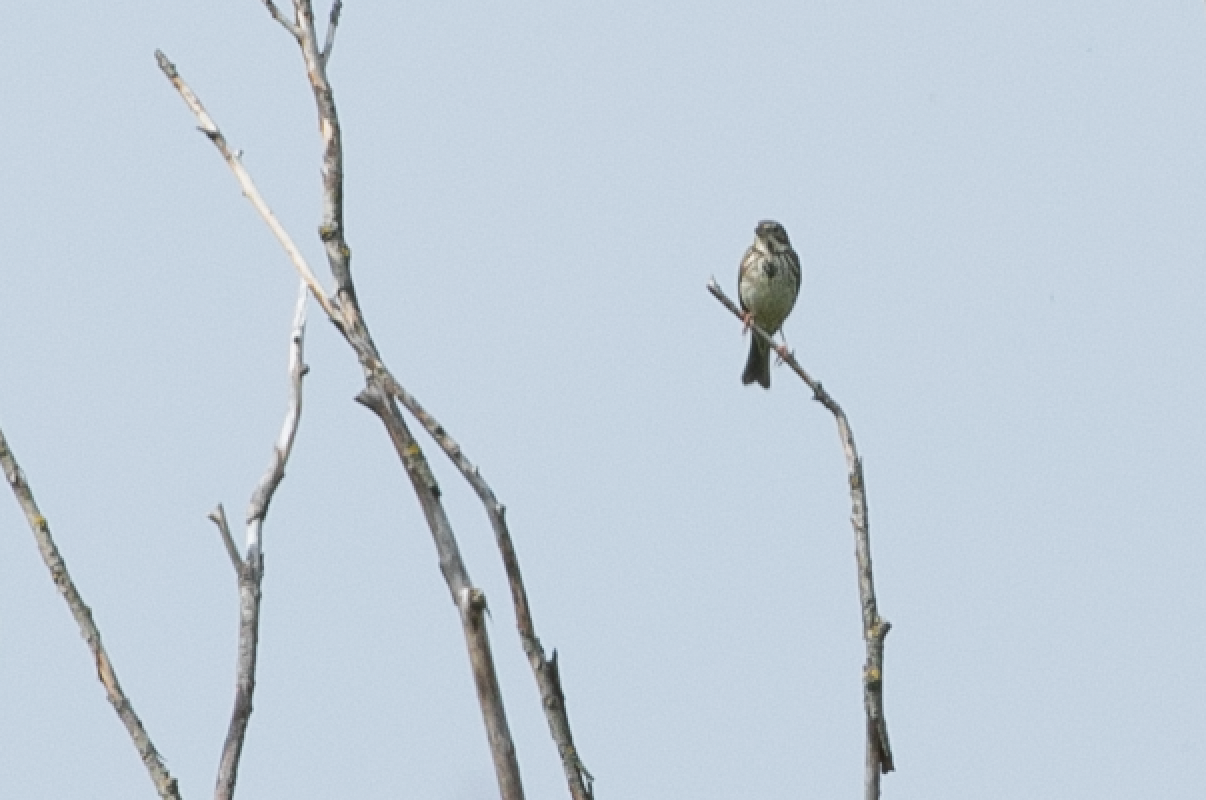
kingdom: Animalia
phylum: Chordata
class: Aves
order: Passeriformes
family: Emberizidae
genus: Emberiza
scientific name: Emberiza calandra
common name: Corn bunting
